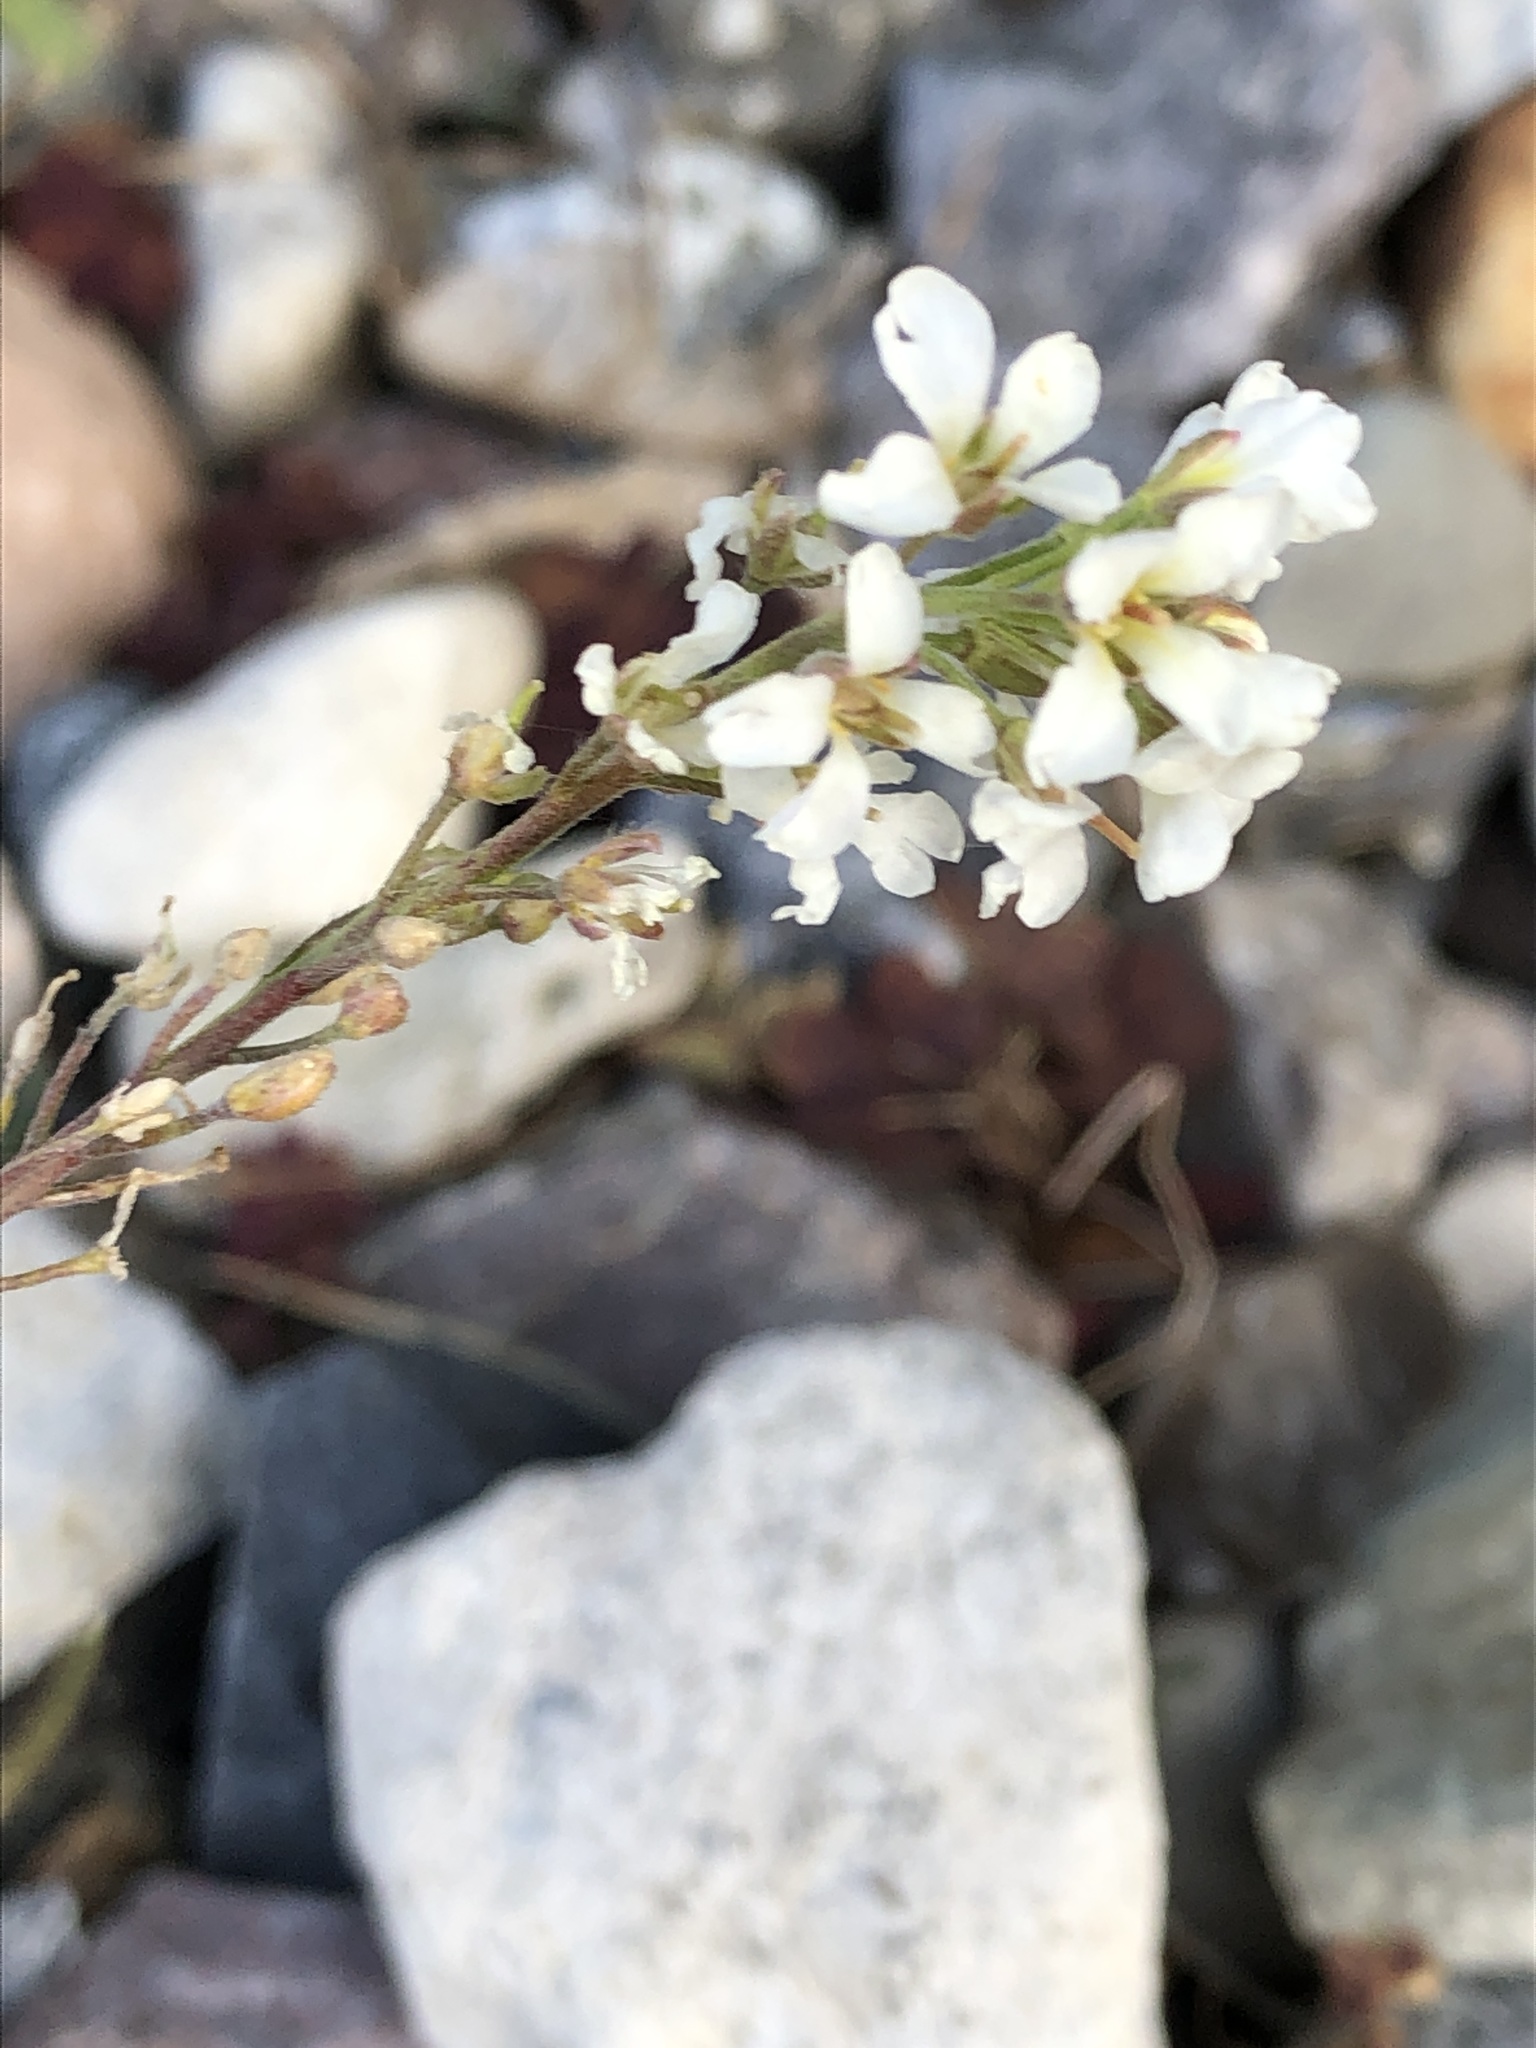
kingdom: Plantae
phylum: Tracheophyta
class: Magnoliopsida
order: Brassicales
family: Brassicaceae
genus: Berteroa
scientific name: Berteroa incana
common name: Hoary alison
